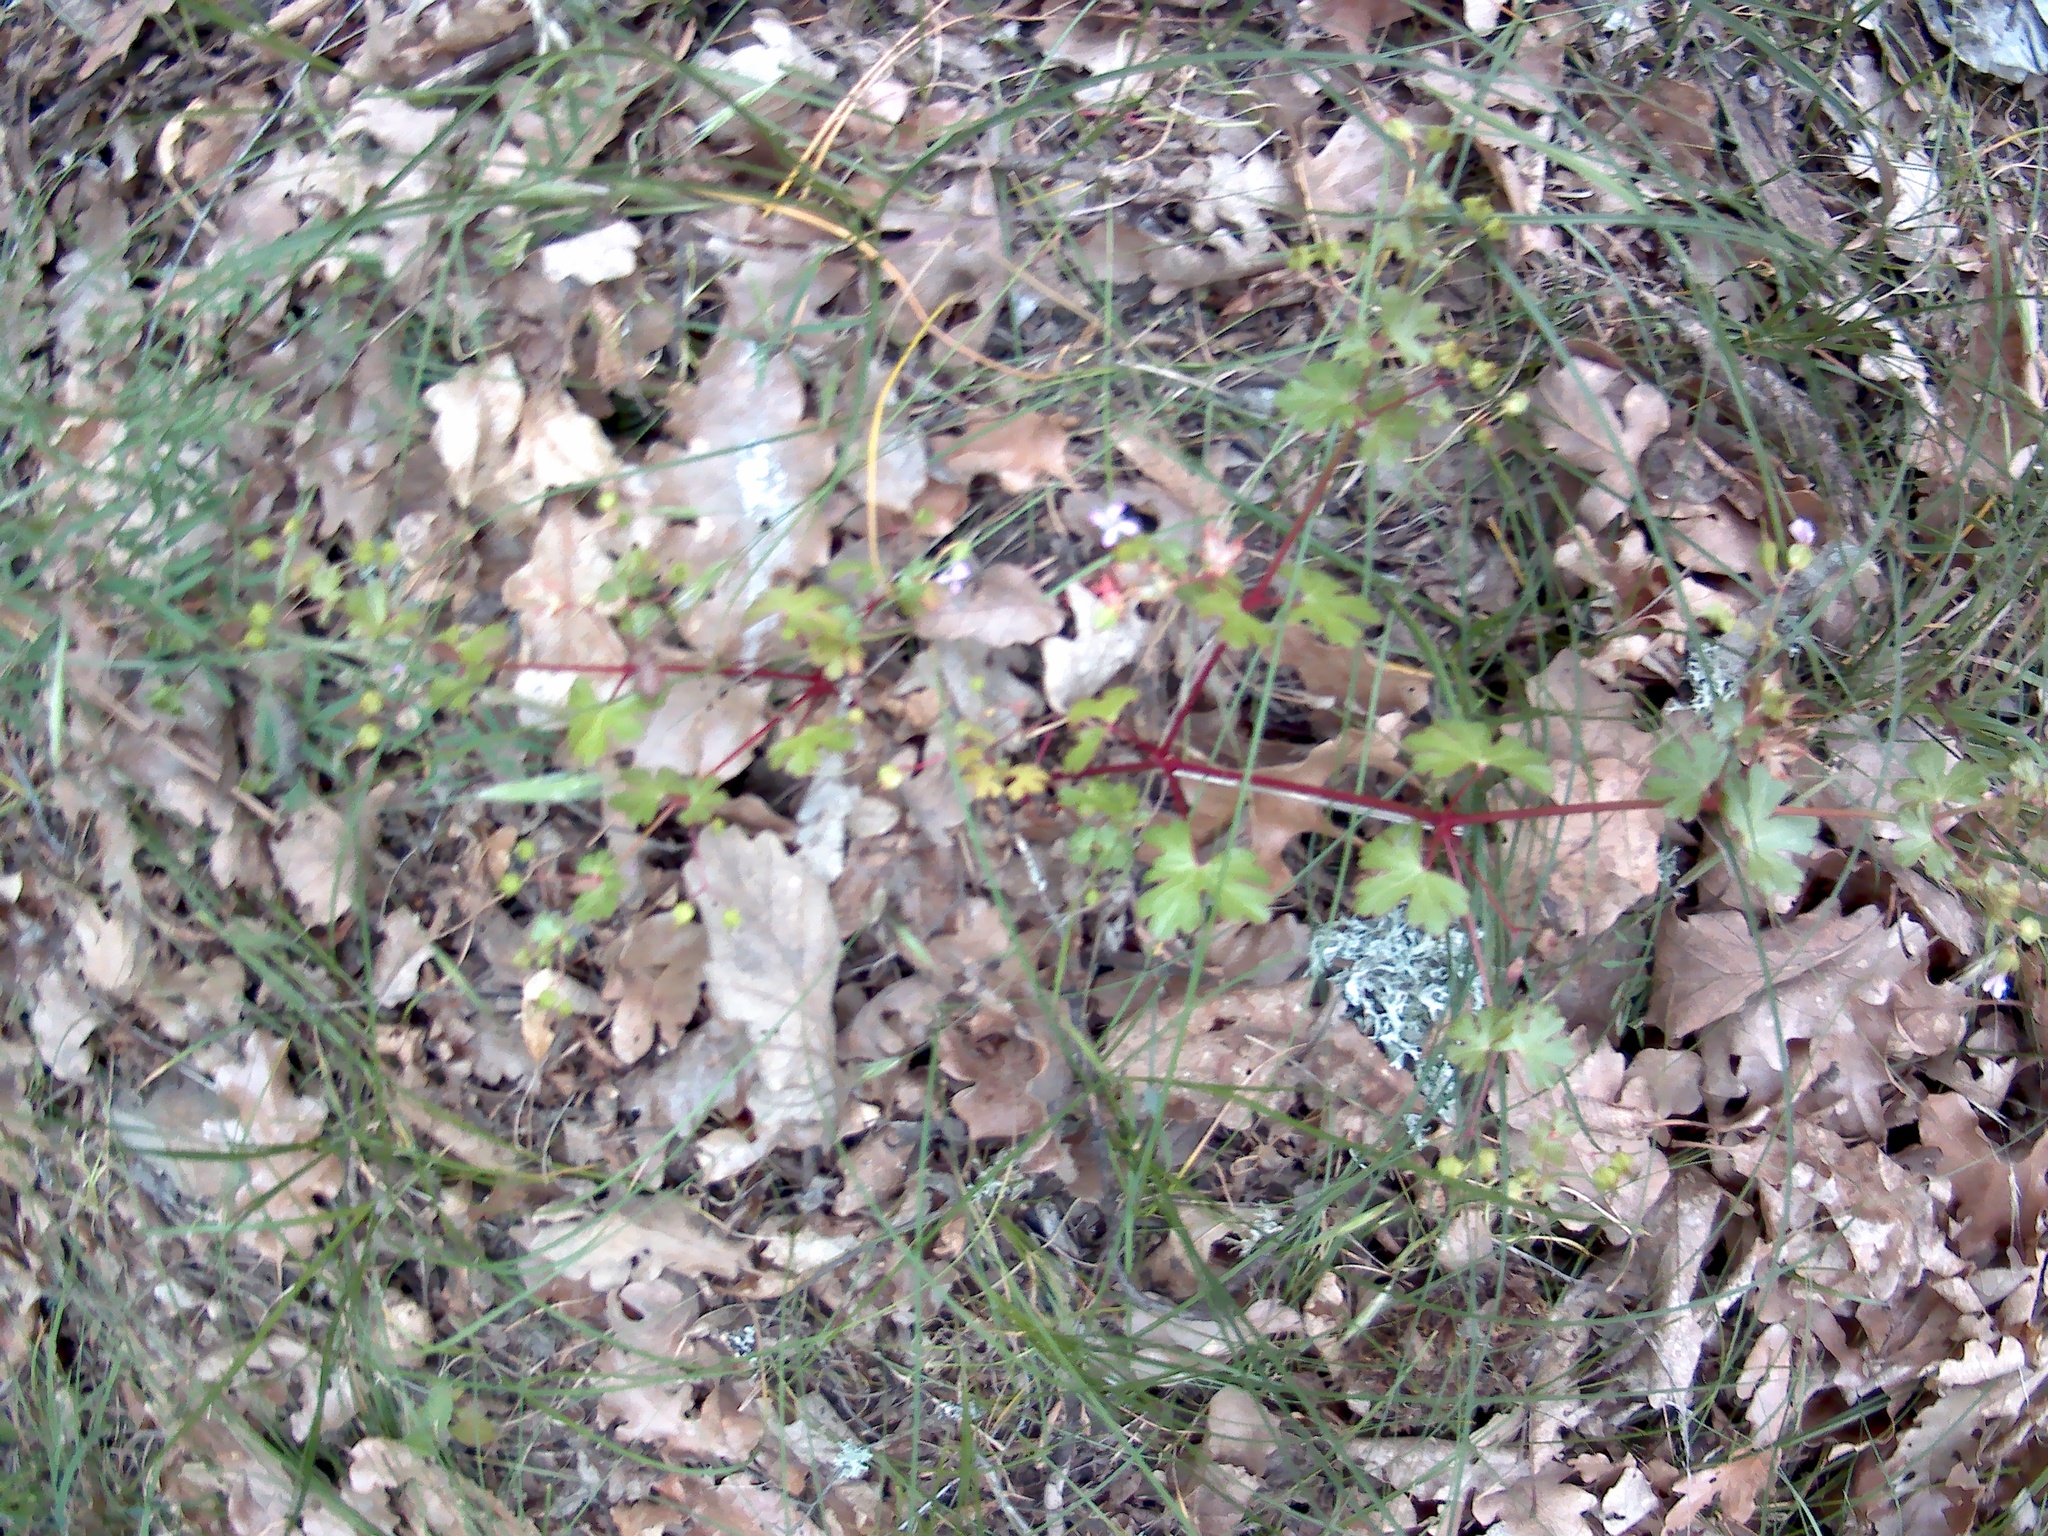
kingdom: Plantae
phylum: Tracheophyta
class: Magnoliopsida
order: Geraniales
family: Geraniaceae
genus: Geranium
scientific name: Geranium lucidum
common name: Shining crane's-bill
